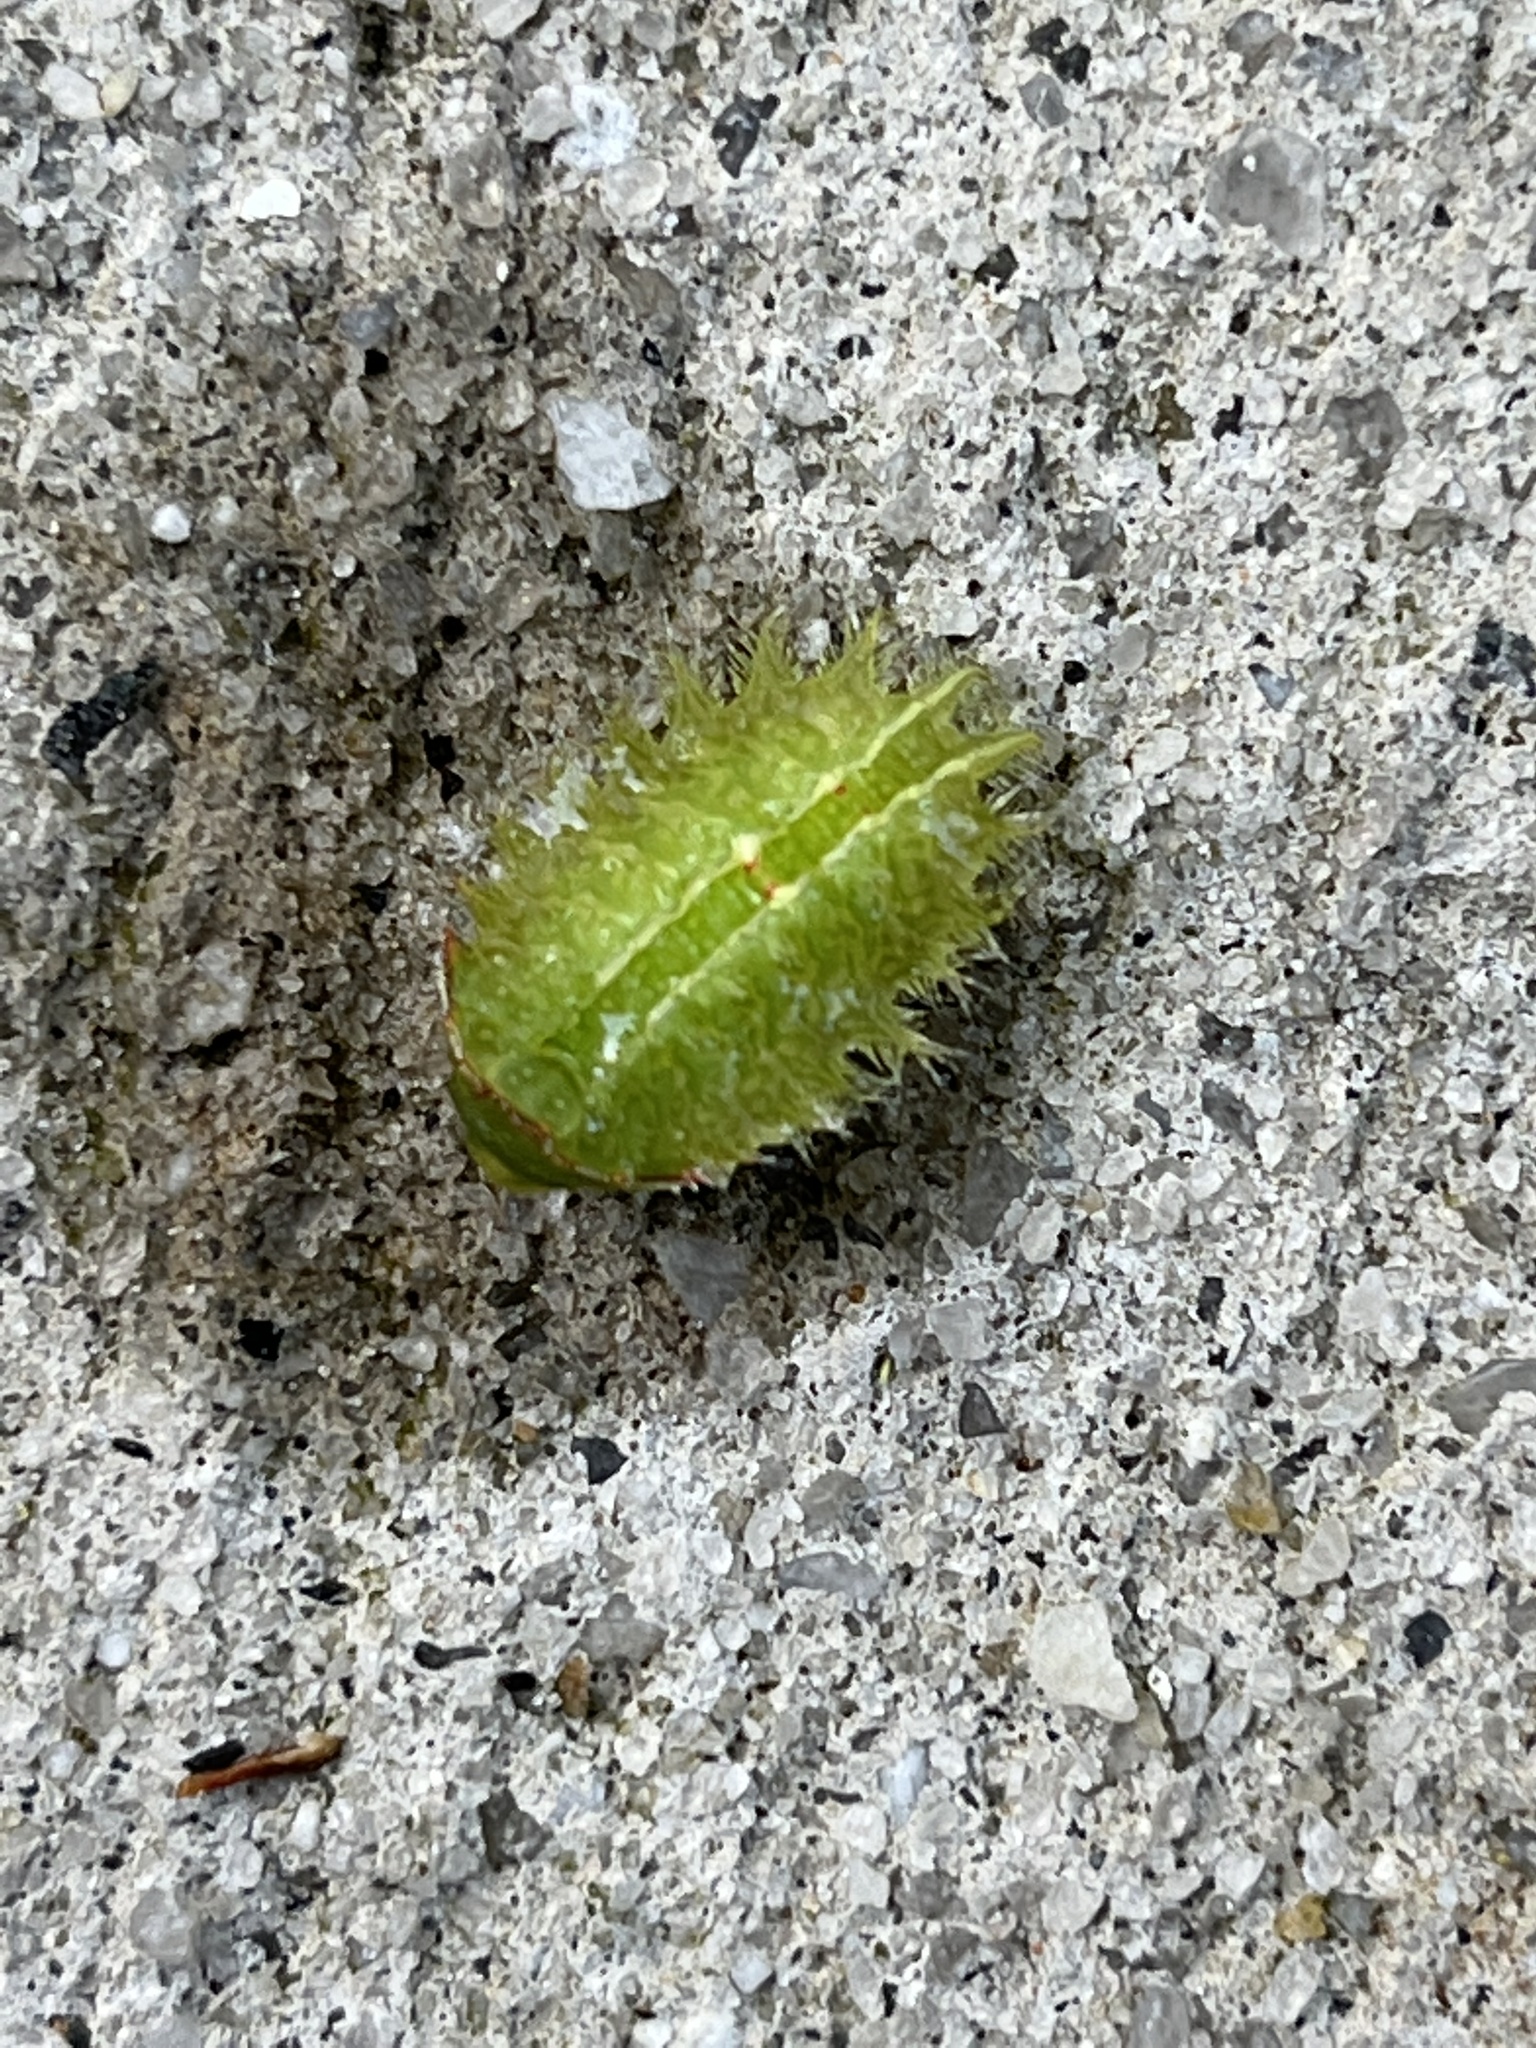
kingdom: Animalia
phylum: Arthropoda
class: Insecta
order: Lepidoptera
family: Limacodidae
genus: Isa
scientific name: Isa textula
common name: Crowned slug moth
